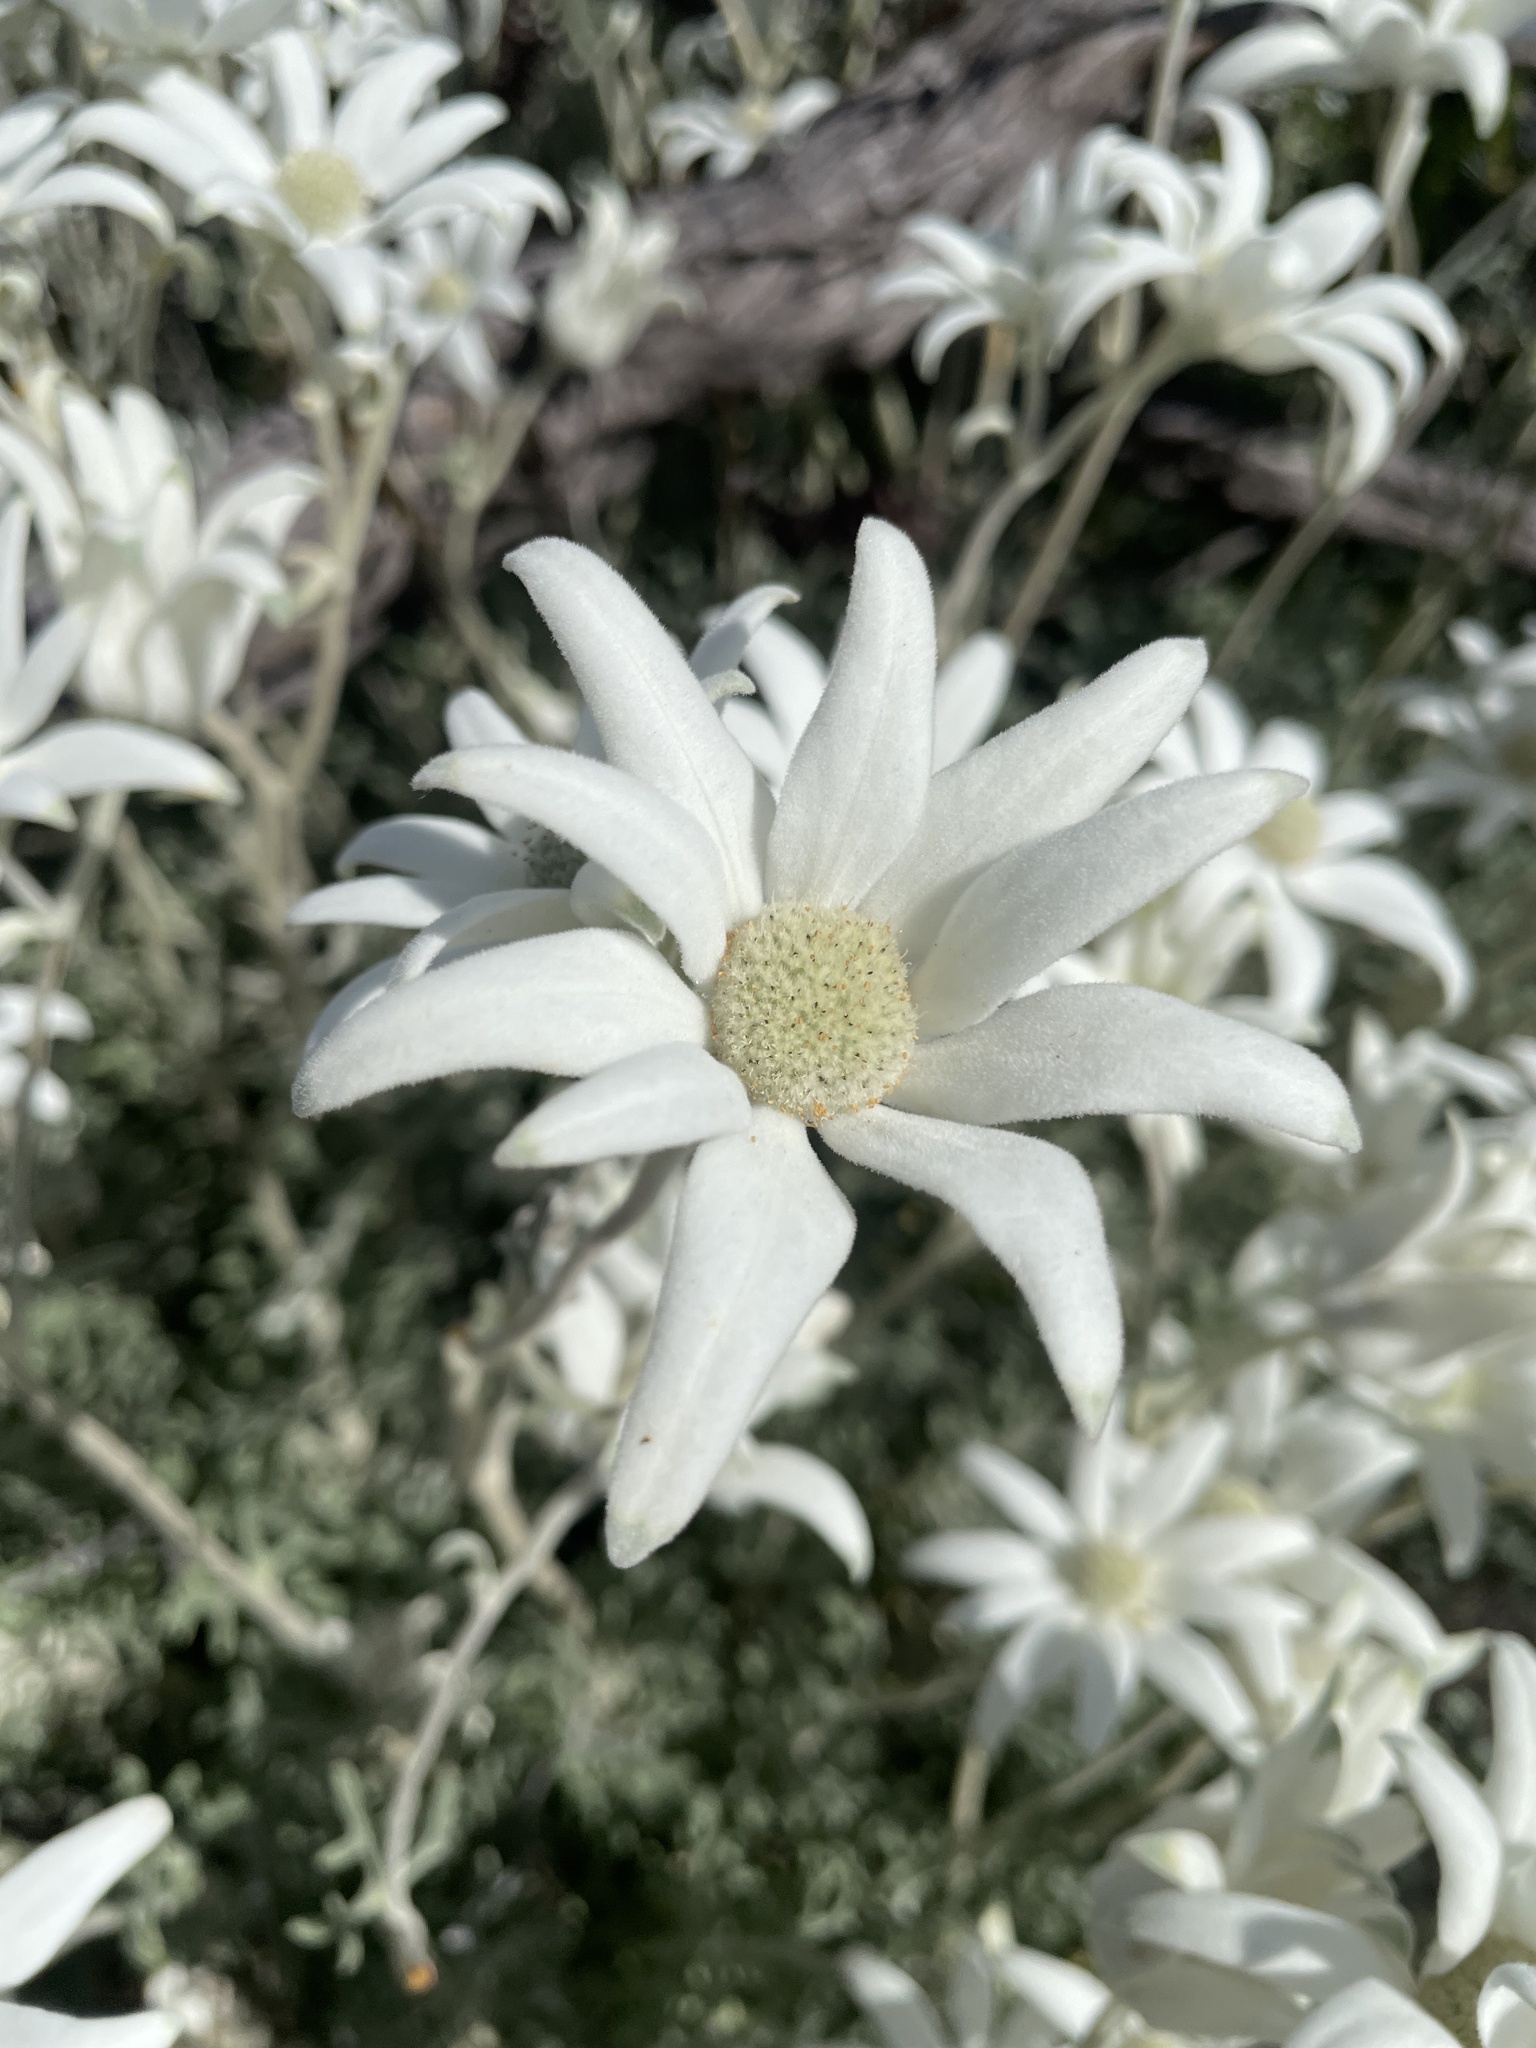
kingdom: Plantae
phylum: Tracheophyta
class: Magnoliopsida
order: Apiales
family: Apiaceae
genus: Actinotus
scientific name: Actinotus helianthi
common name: Flannel-flower
